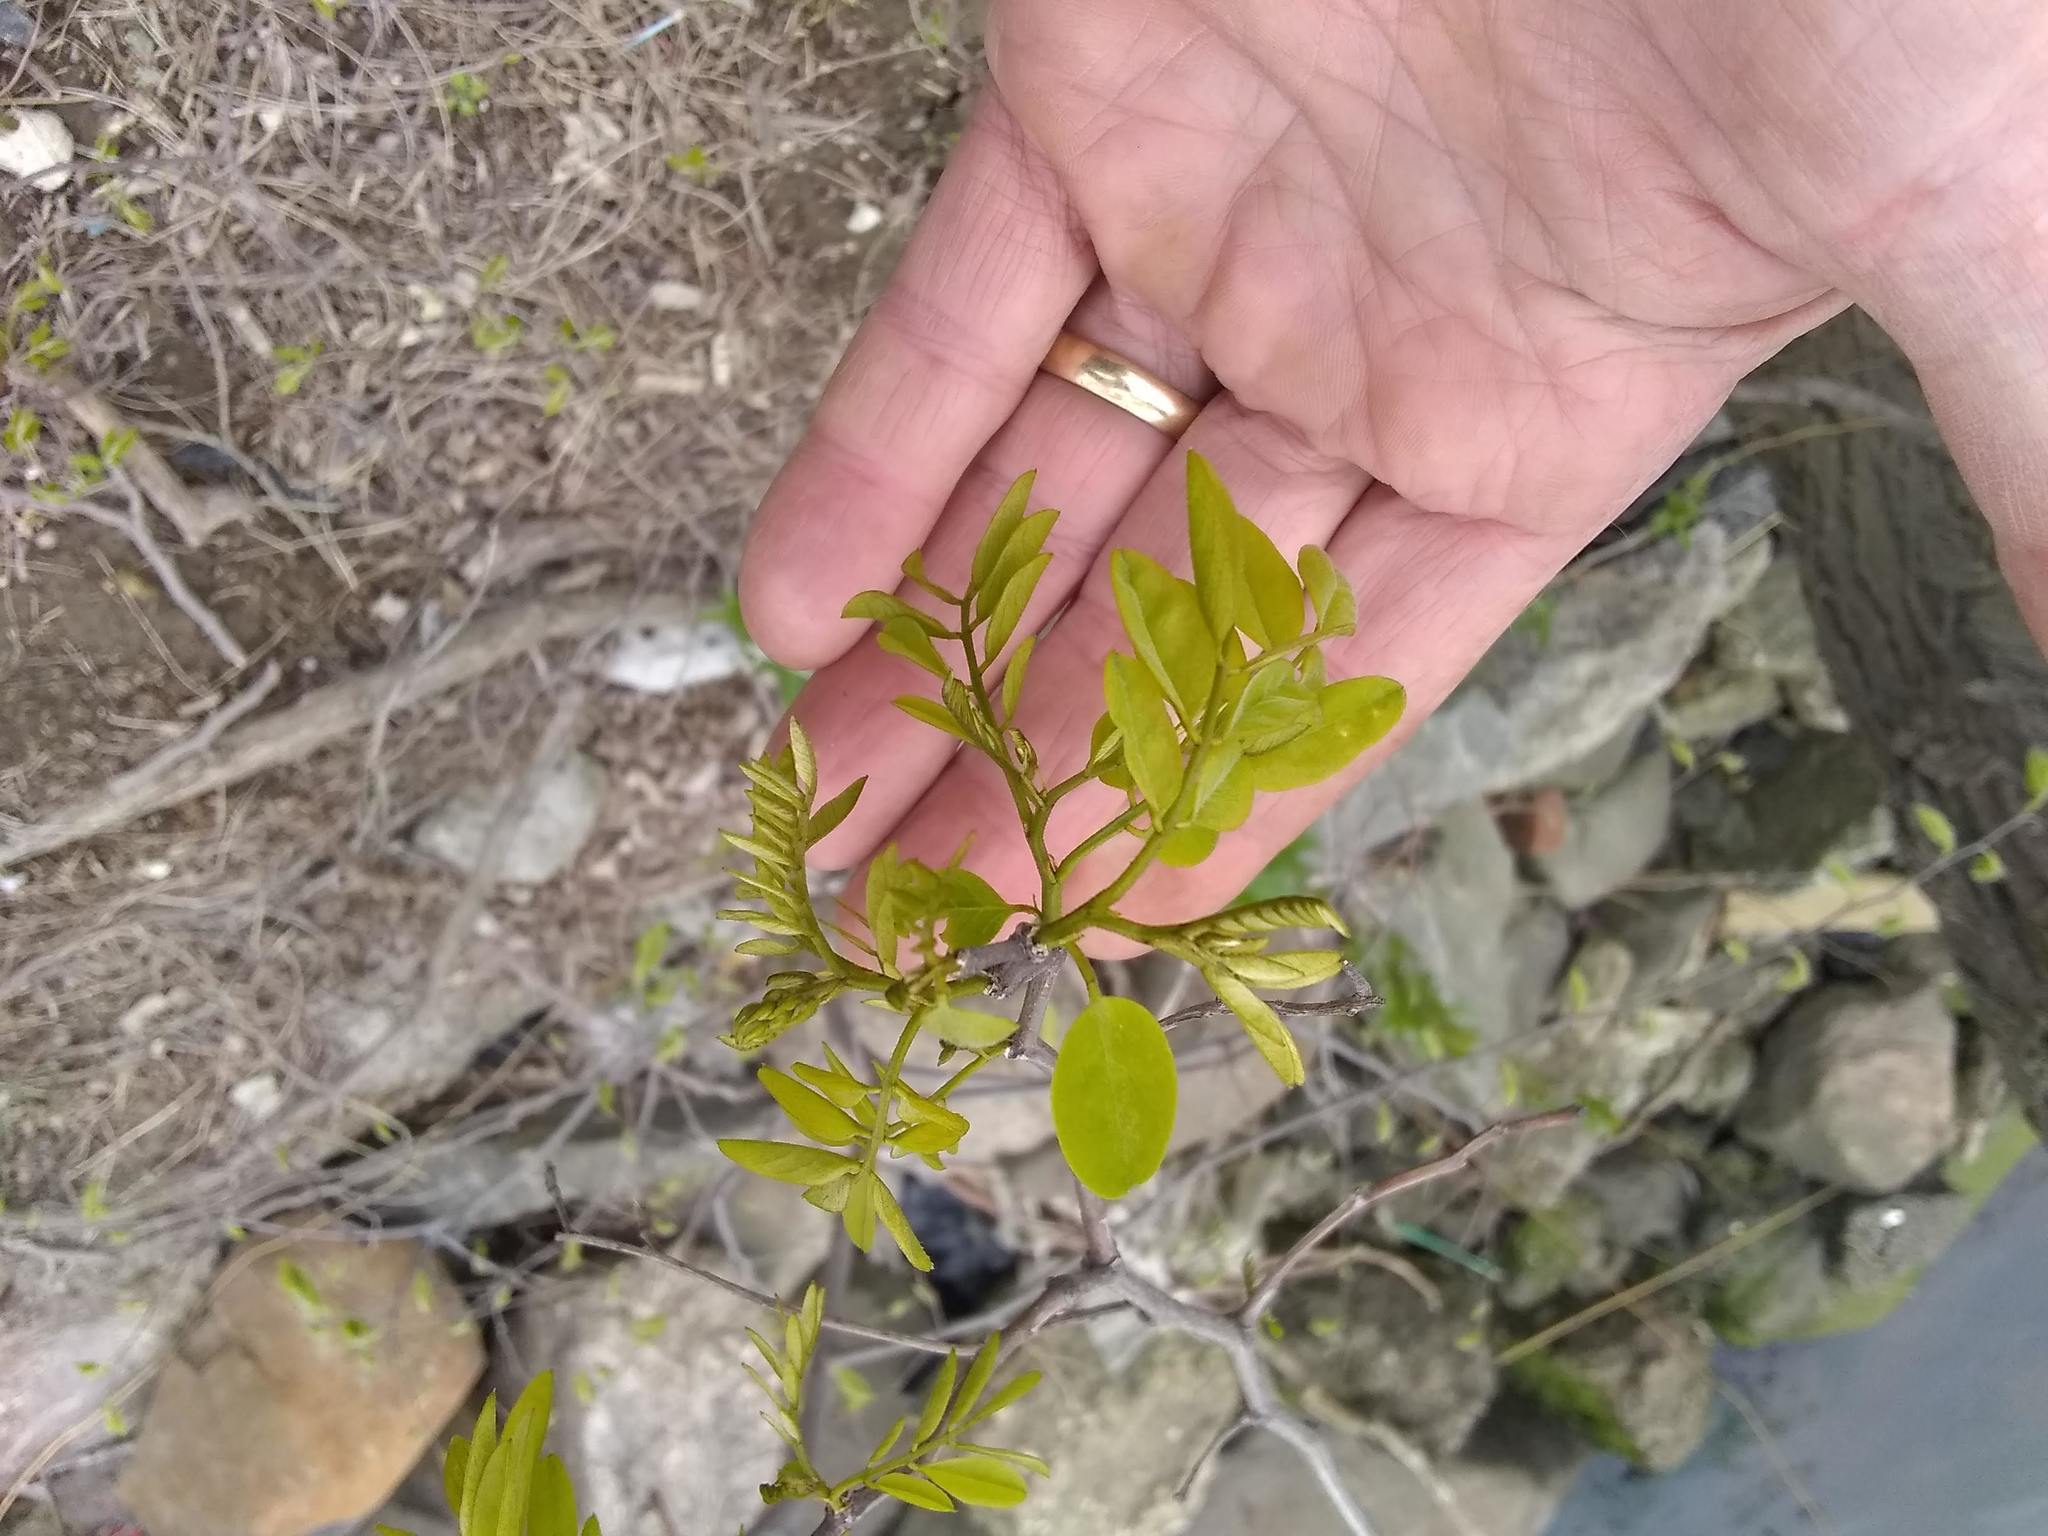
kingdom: Plantae
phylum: Tracheophyta
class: Magnoliopsida
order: Fabales
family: Fabaceae
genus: Robinia
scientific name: Robinia pseudoacacia
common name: Black locust
